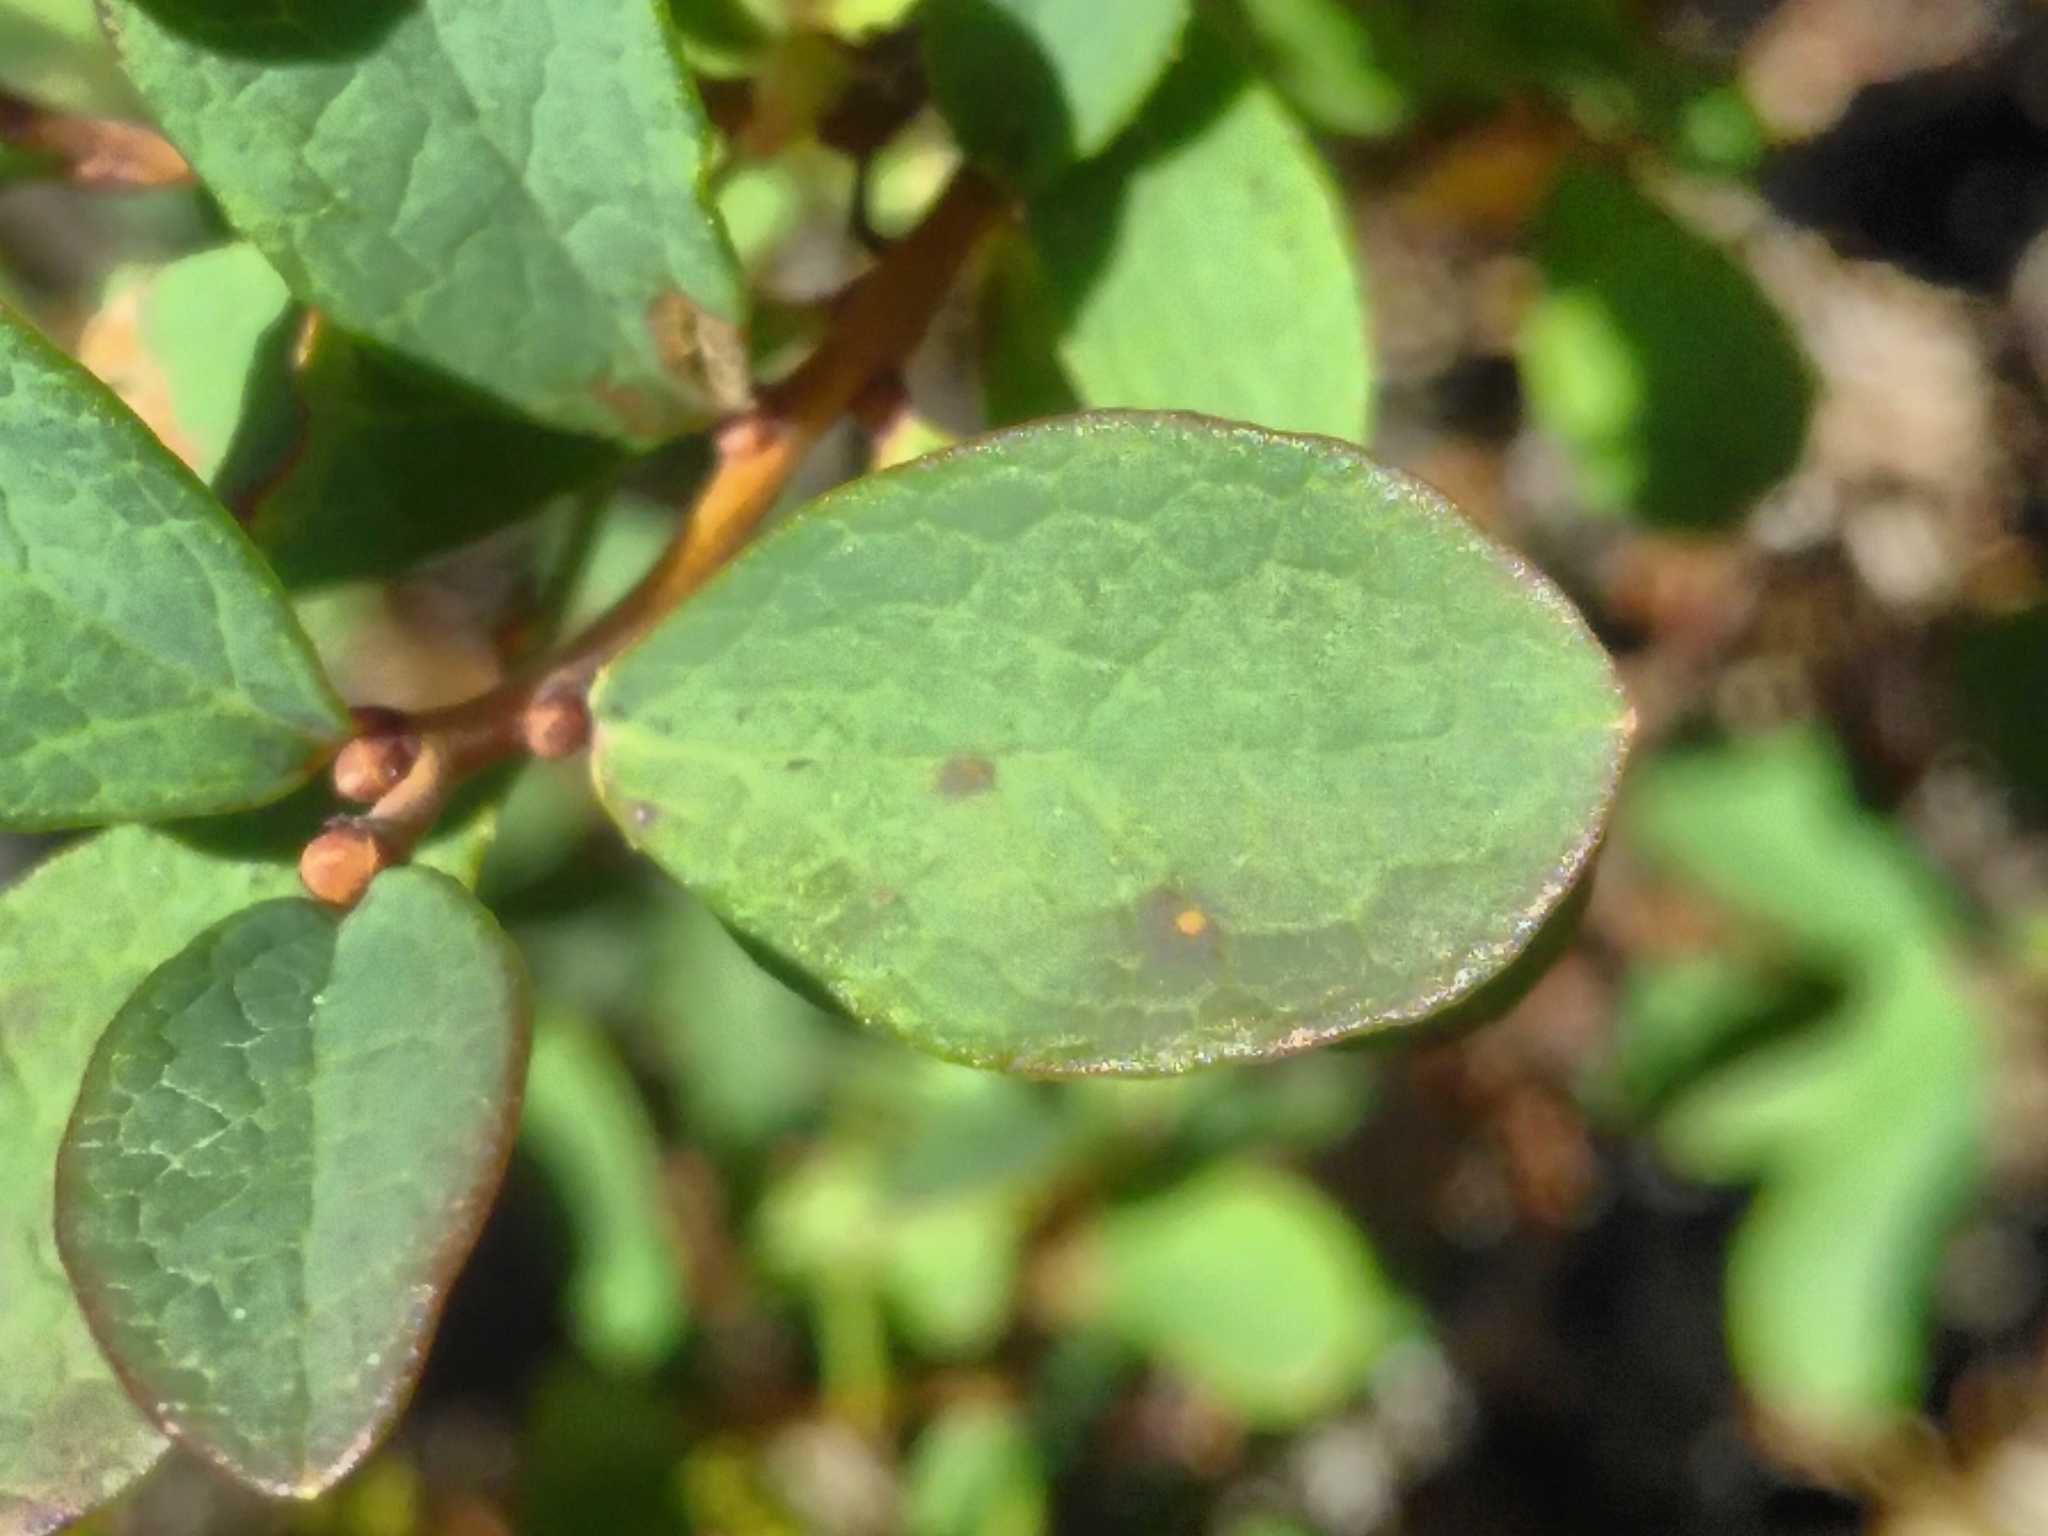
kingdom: Plantae
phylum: Tracheophyta
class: Magnoliopsida
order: Ericales
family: Ericaceae
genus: Vaccinium
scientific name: Vaccinium uliginosum
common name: Bog bilberry
